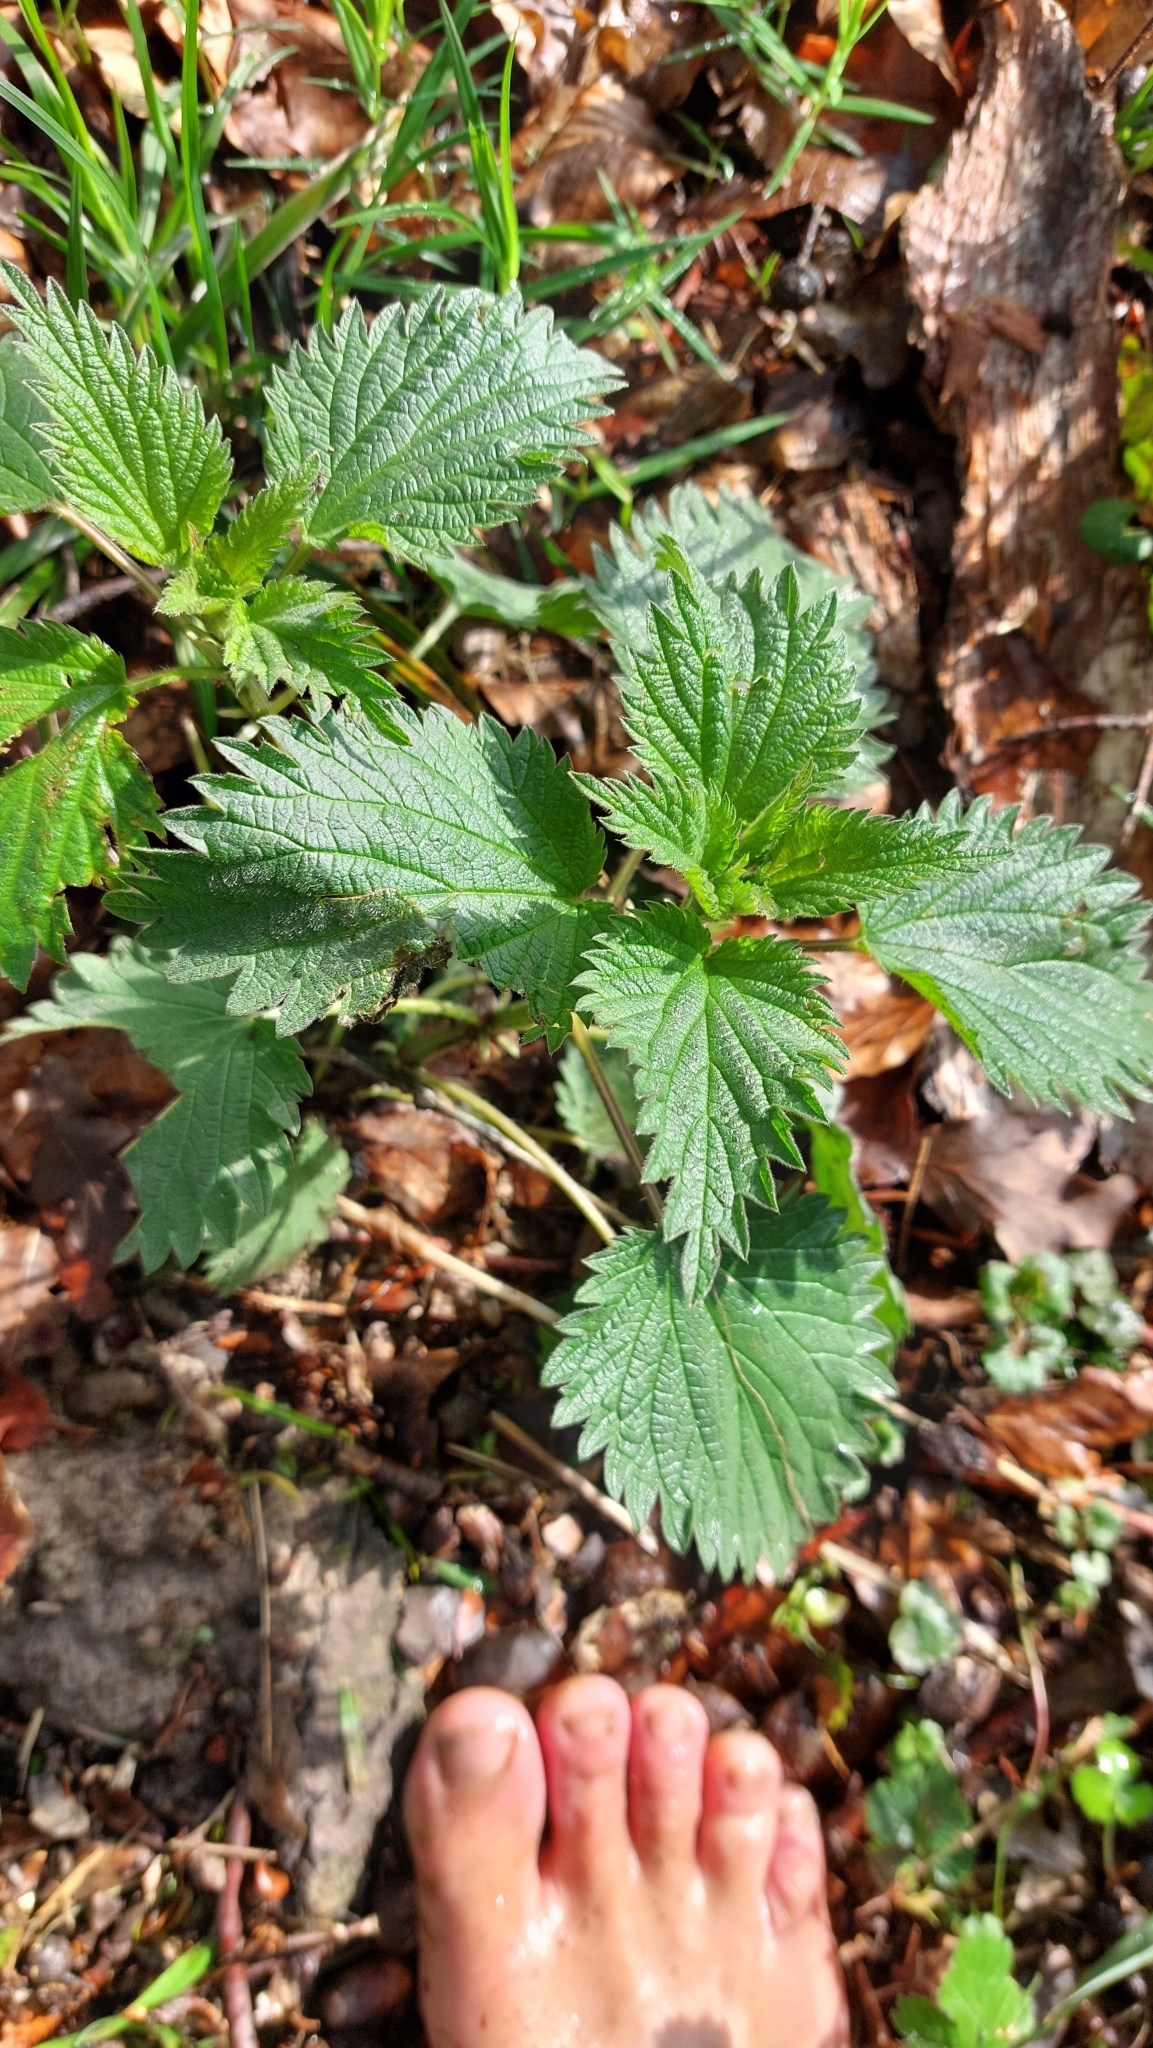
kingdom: Plantae
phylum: Tracheophyta
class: Magnoliopsida
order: Rosales
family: Urticaceae
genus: Urtica
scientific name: Urtica dioica
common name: Common nettle
